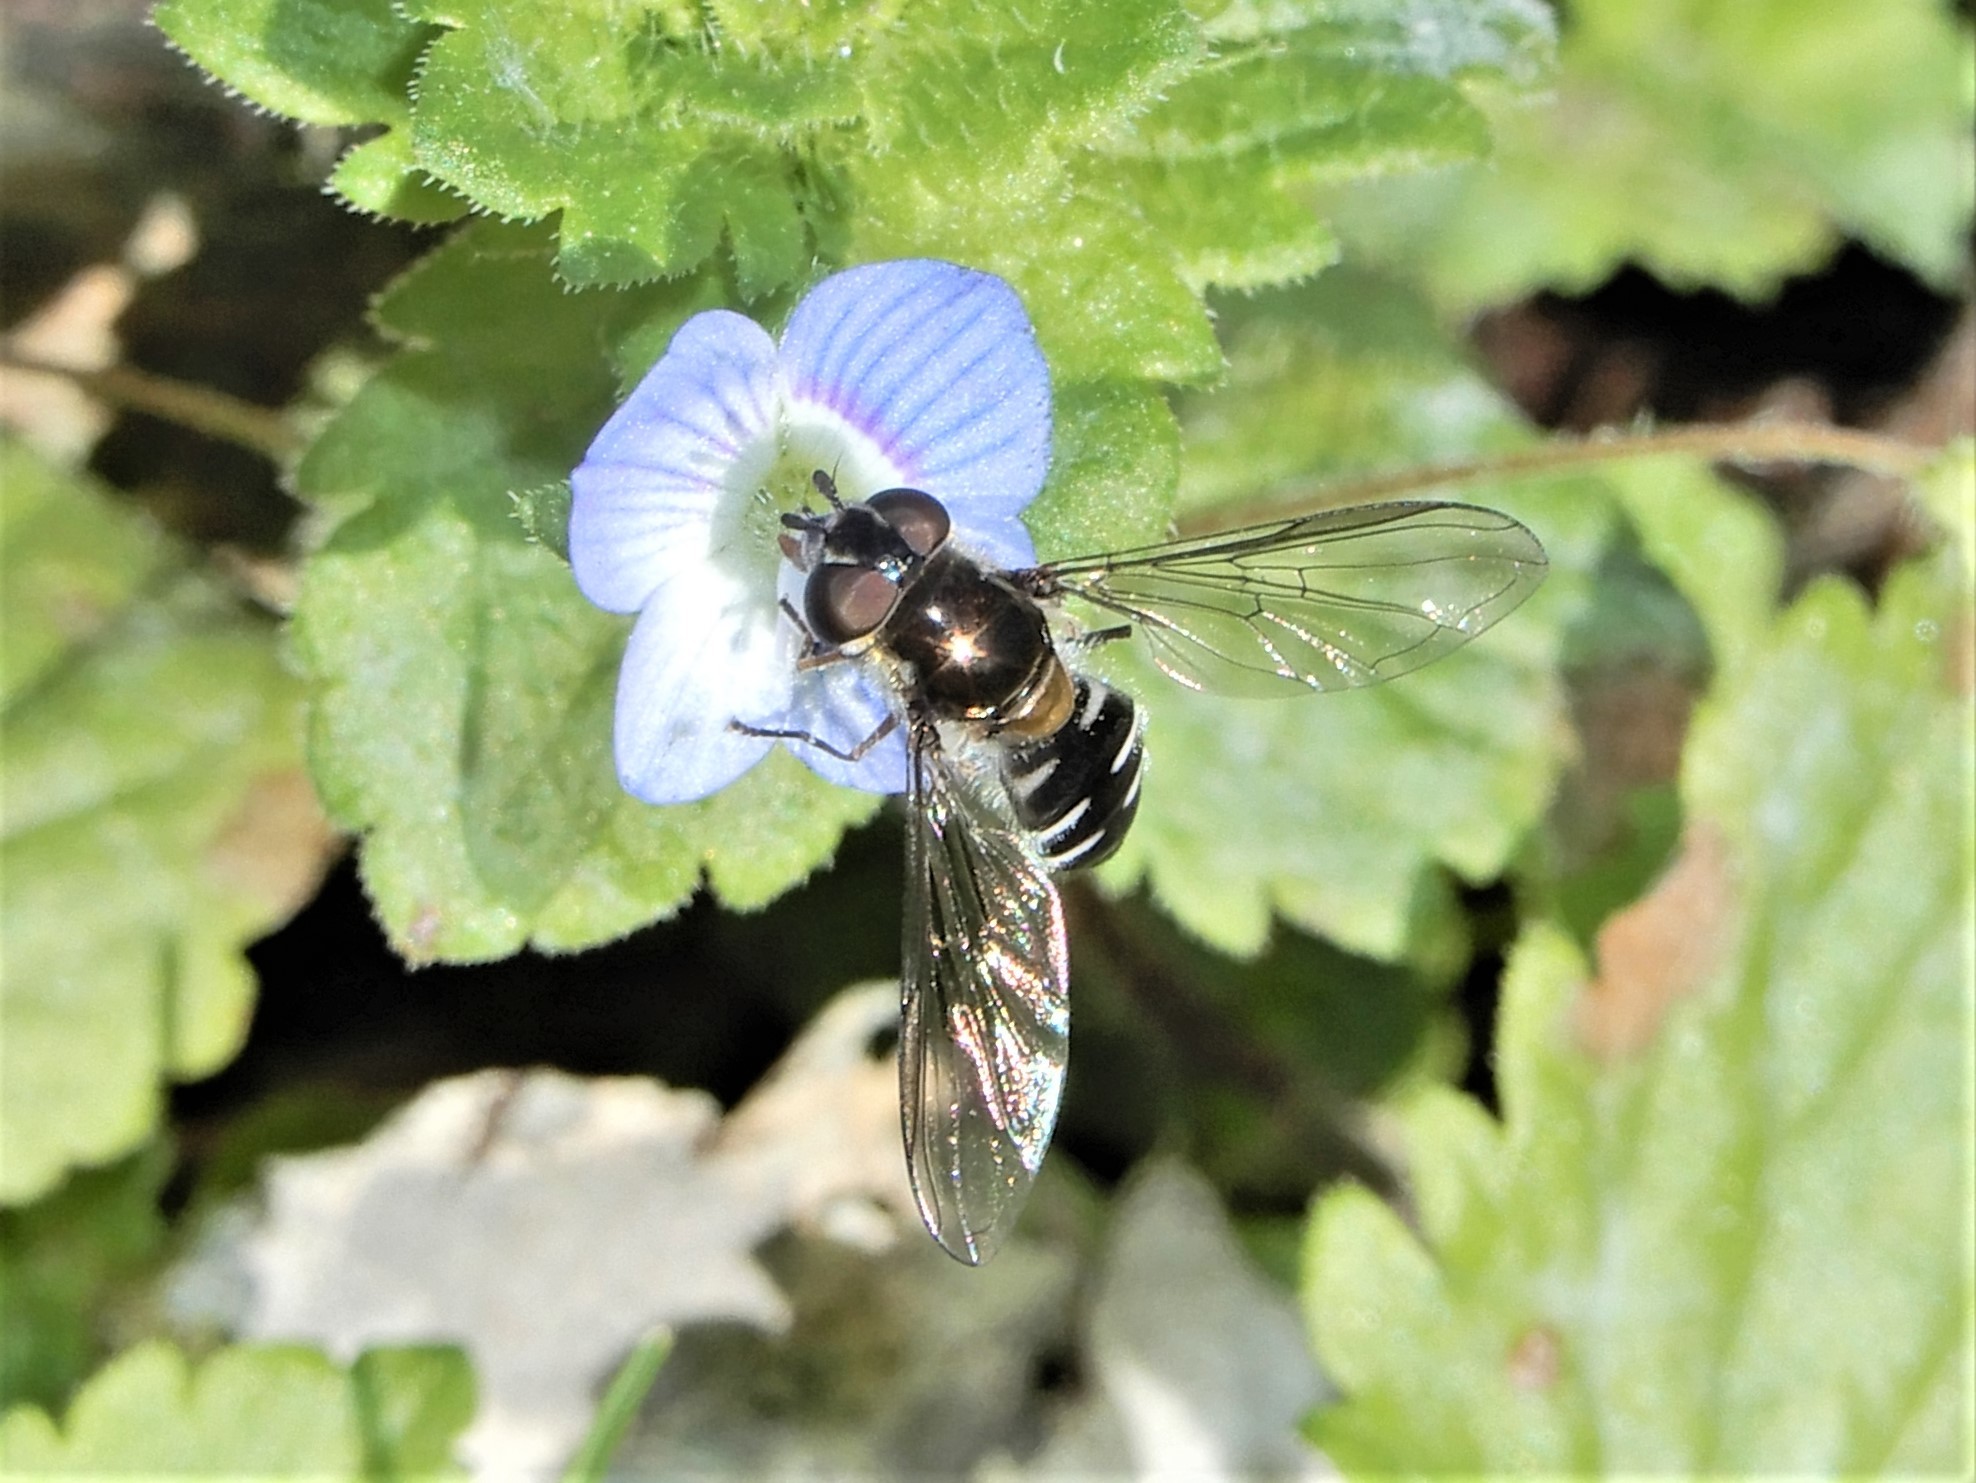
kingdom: Animalia
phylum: Arthropoda
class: Insecta
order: Diptera
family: Syrphidae
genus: Melangyna
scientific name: Melangyna novaezelandiae
